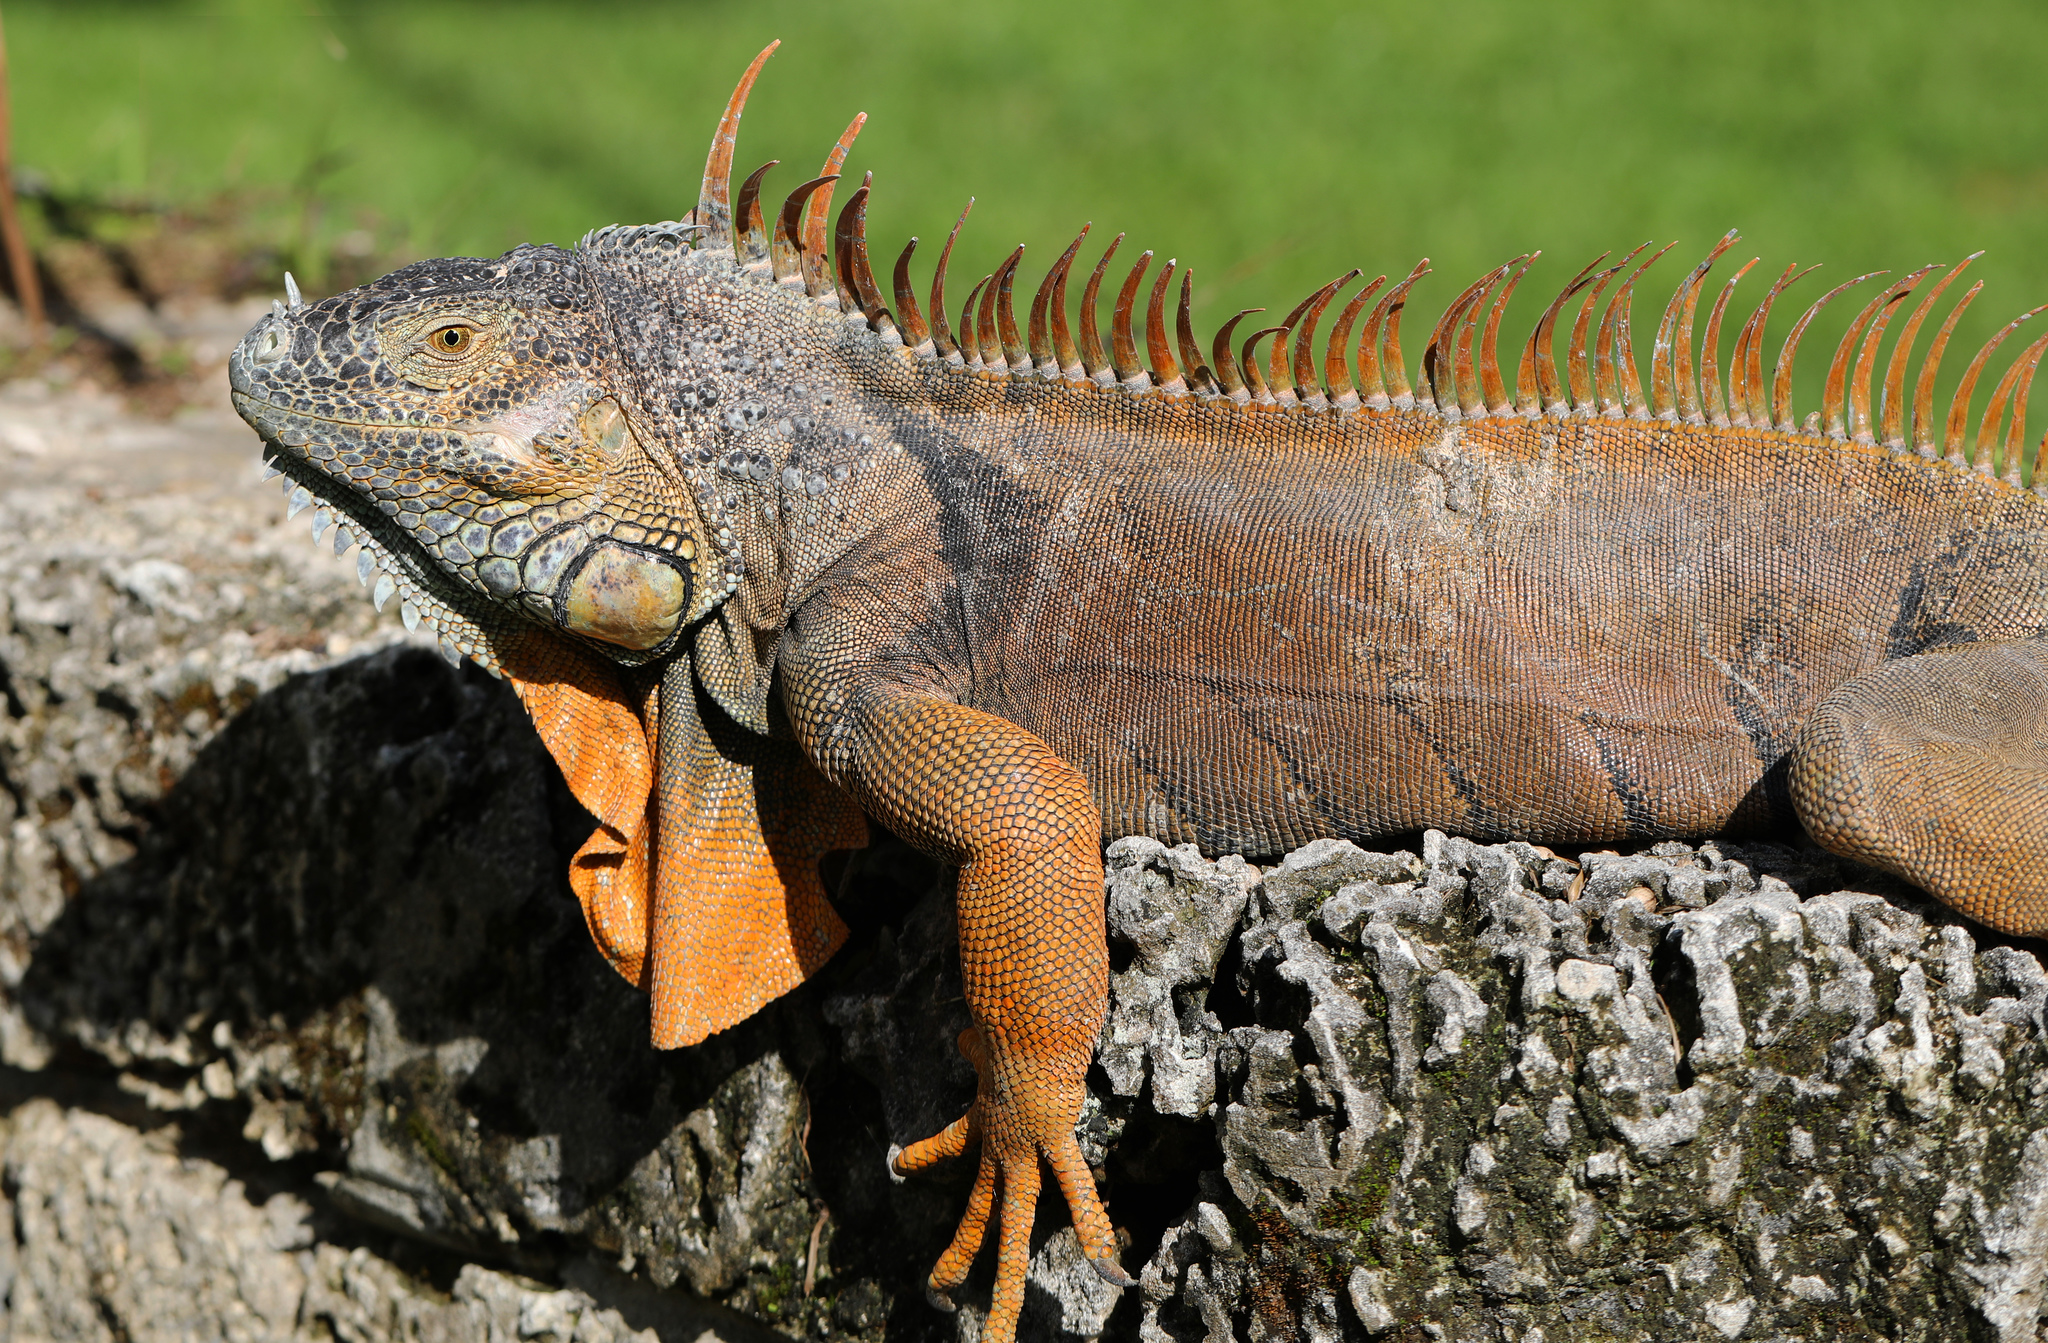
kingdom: Animalia
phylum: Chordata
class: Squamata
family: Iguanidae
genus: Iguana
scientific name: Iguana iguana
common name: Green iguana
